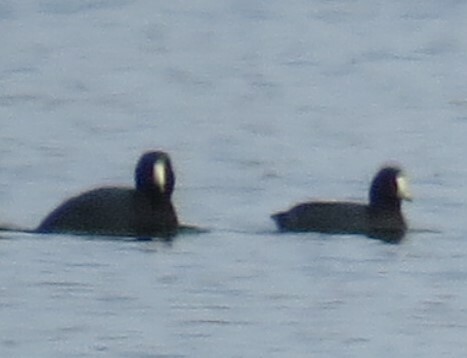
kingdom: Animalia
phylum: Chordata
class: Aves
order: Gruiformes
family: Rallidae
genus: Fulica
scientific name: Fulica americana
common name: American coot
